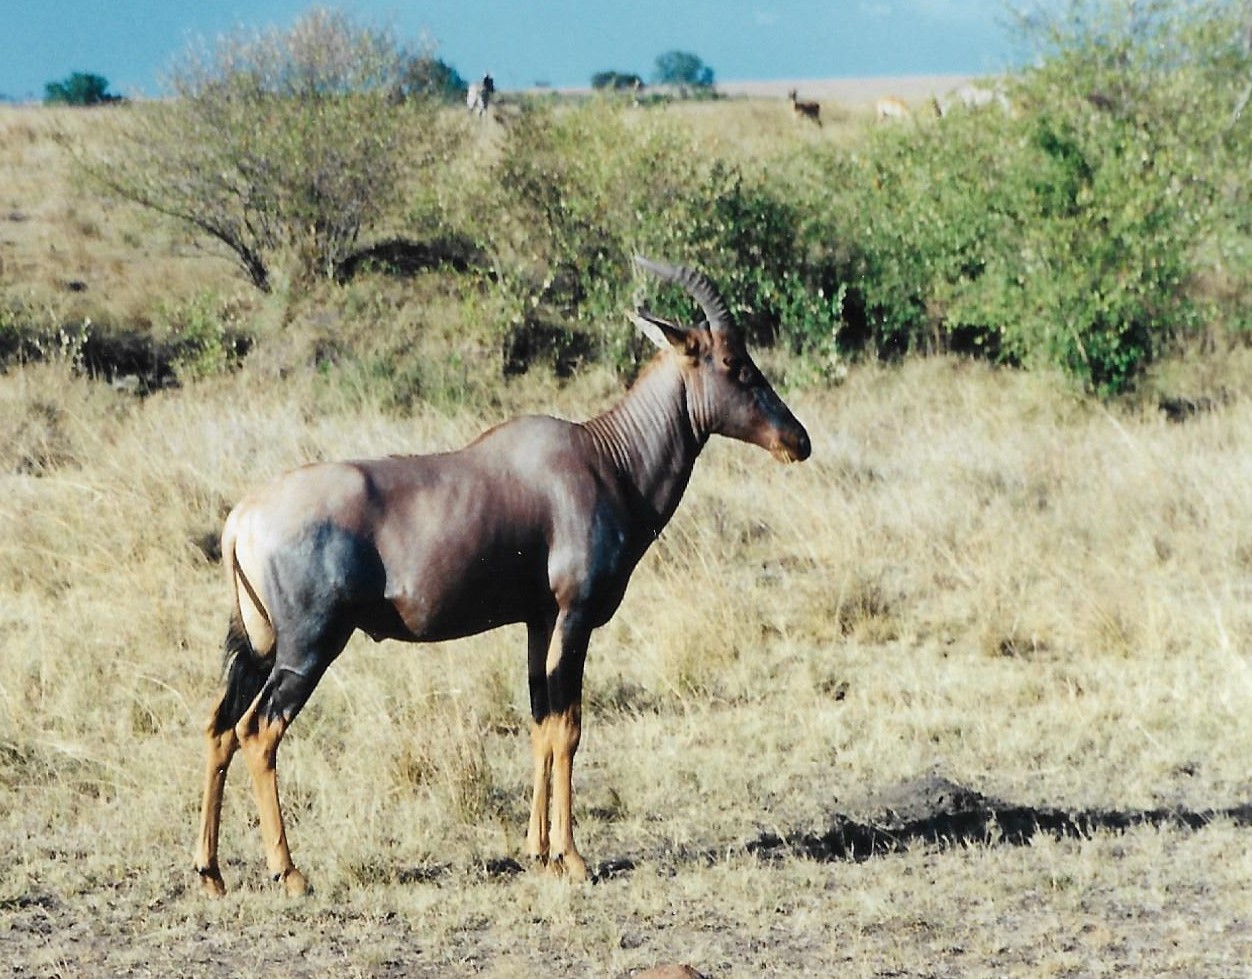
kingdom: Animalia
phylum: Chordata
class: Mammalia
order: Artiodactyla
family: Bovidae
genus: Damaliscus
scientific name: Damaliscus korrigum
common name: Topi
